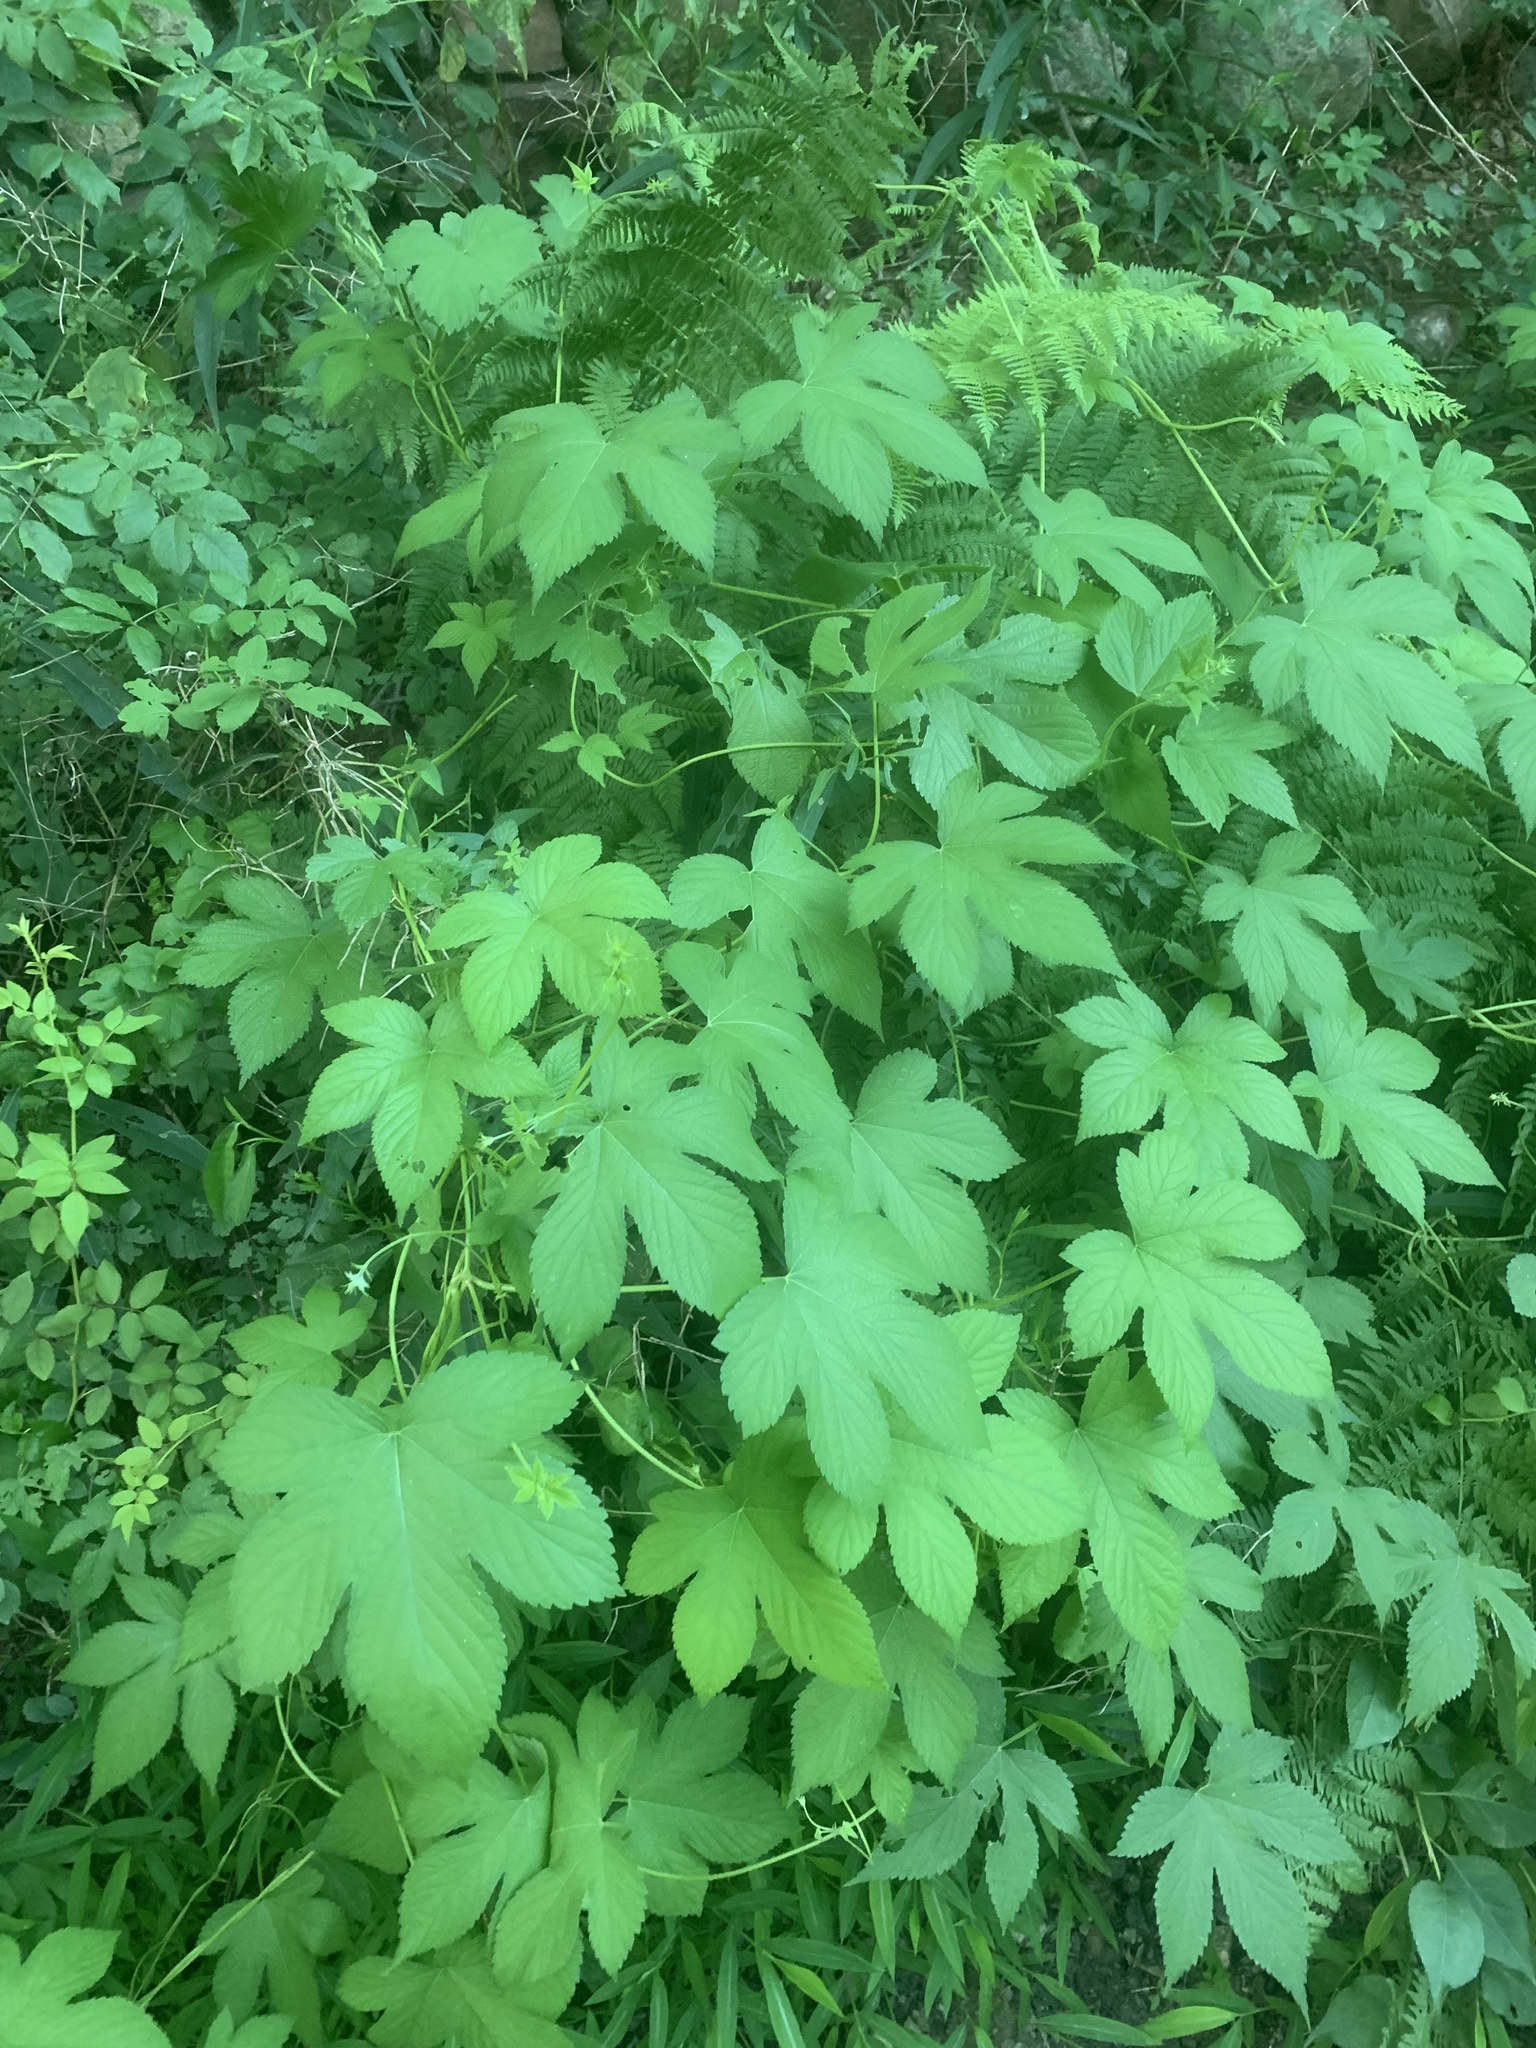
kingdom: Plantae
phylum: Tracheophyta
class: Magnoliopsida
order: Rosales
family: Cannabaceae
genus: Humulus
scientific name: Humulus scandens
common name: Japanese hop
